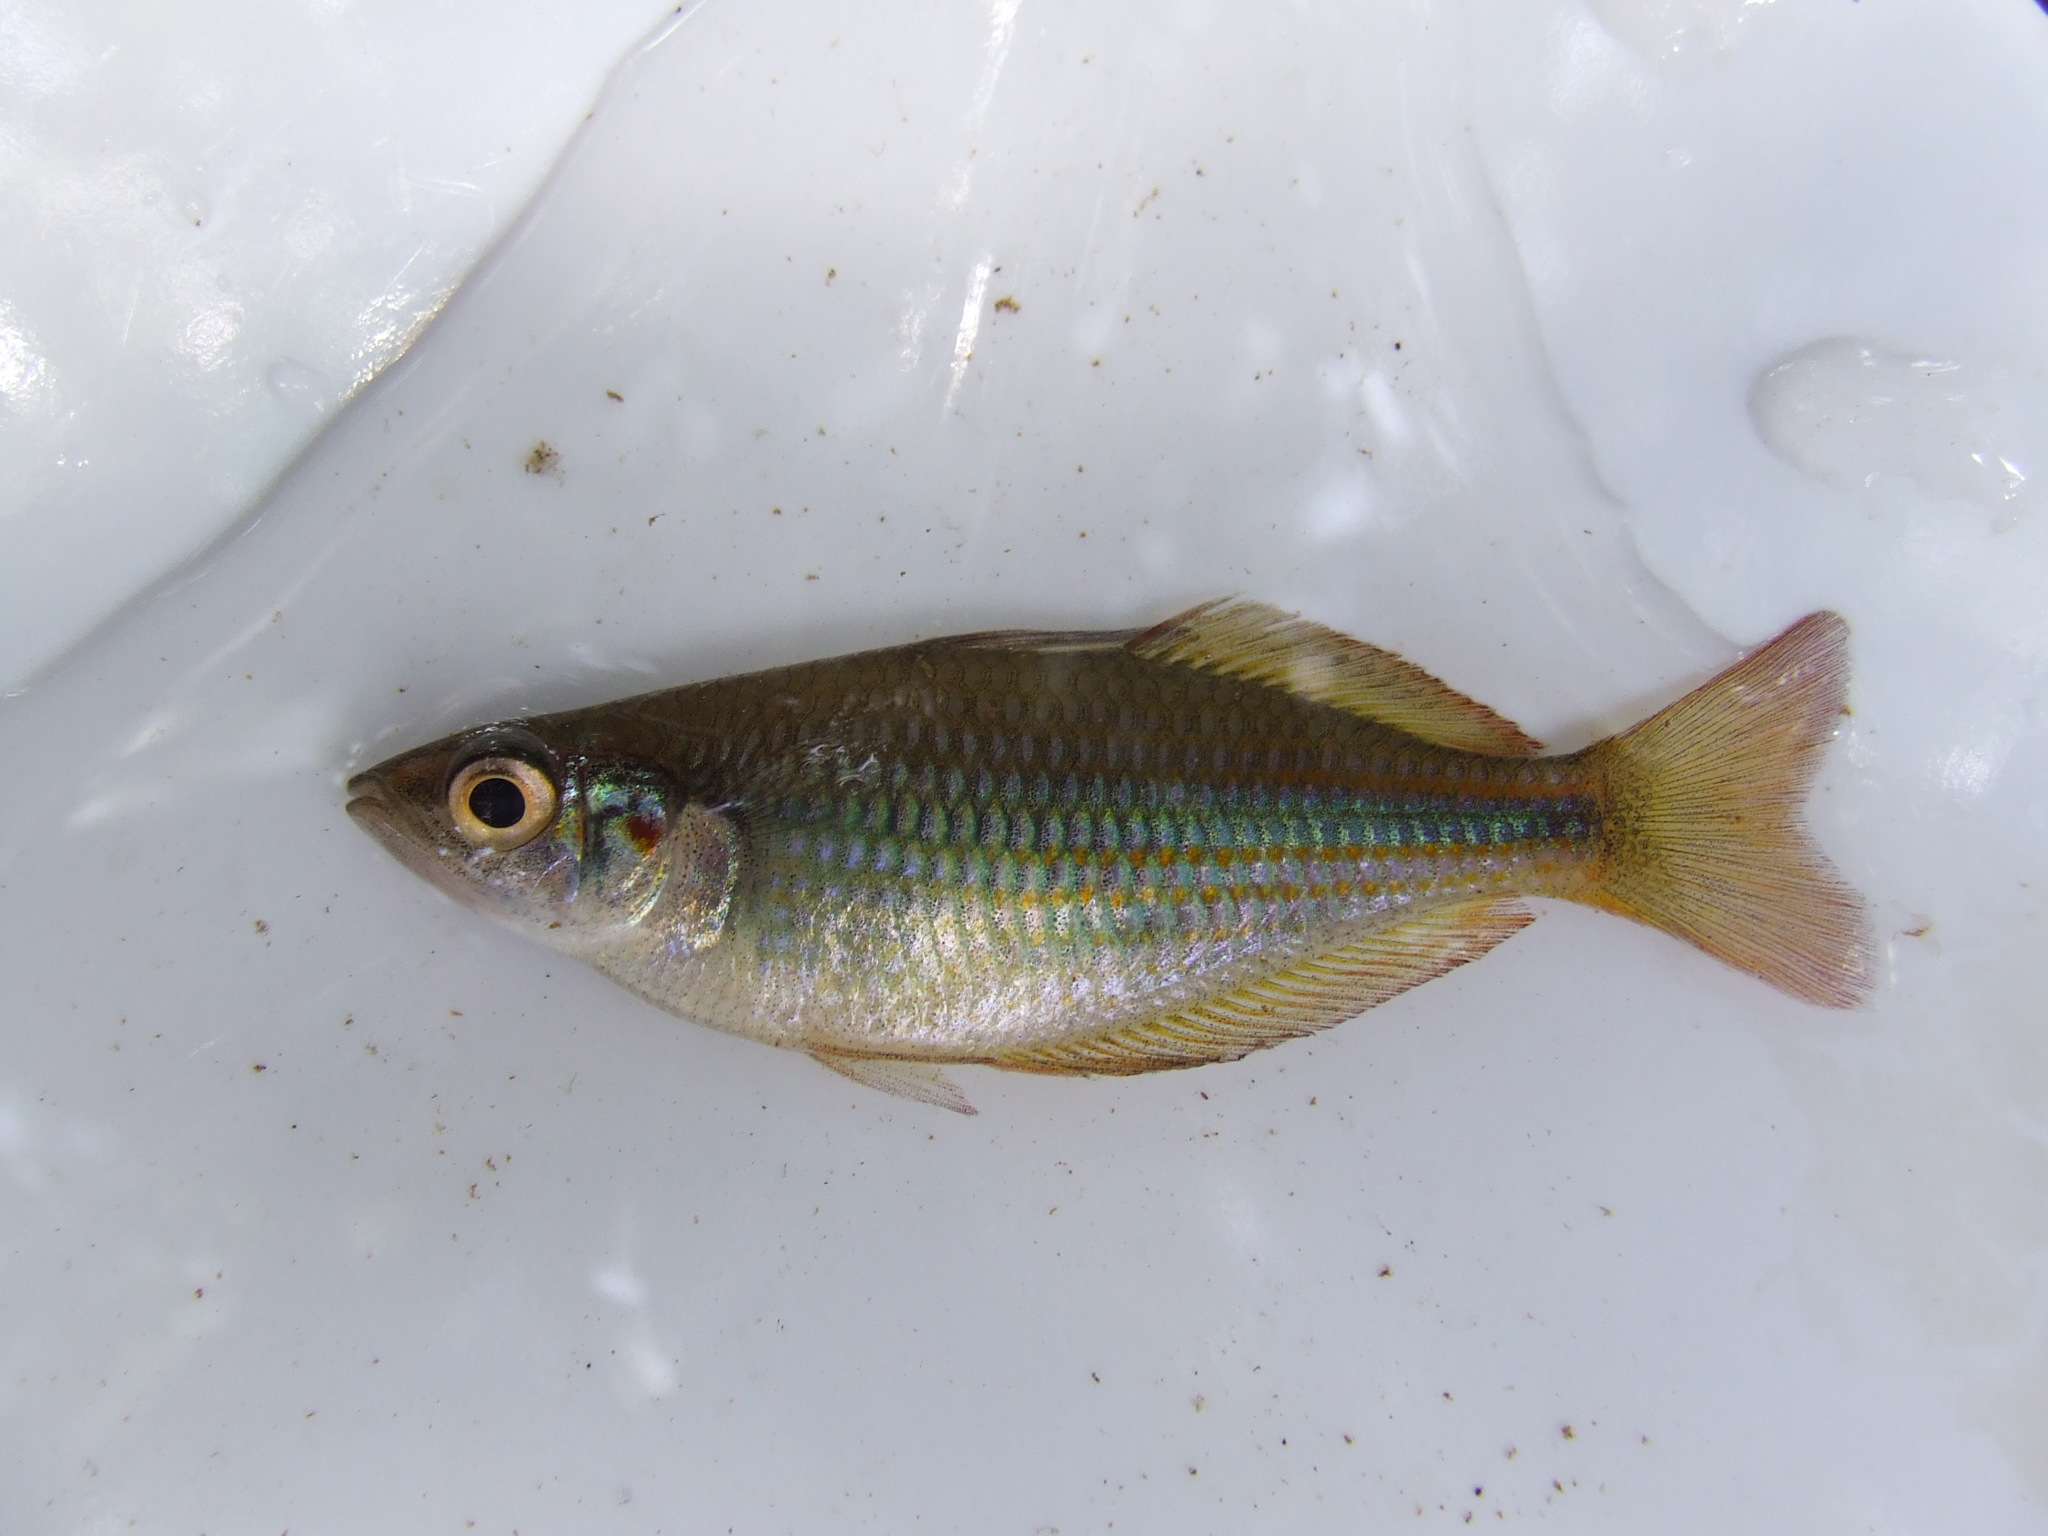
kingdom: Animalia
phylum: Chordata
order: Atheriniformes
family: Melanotaeniidae
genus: Melanotaenia
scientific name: Melanotaenia trifasciata
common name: Banded rainbowfish
